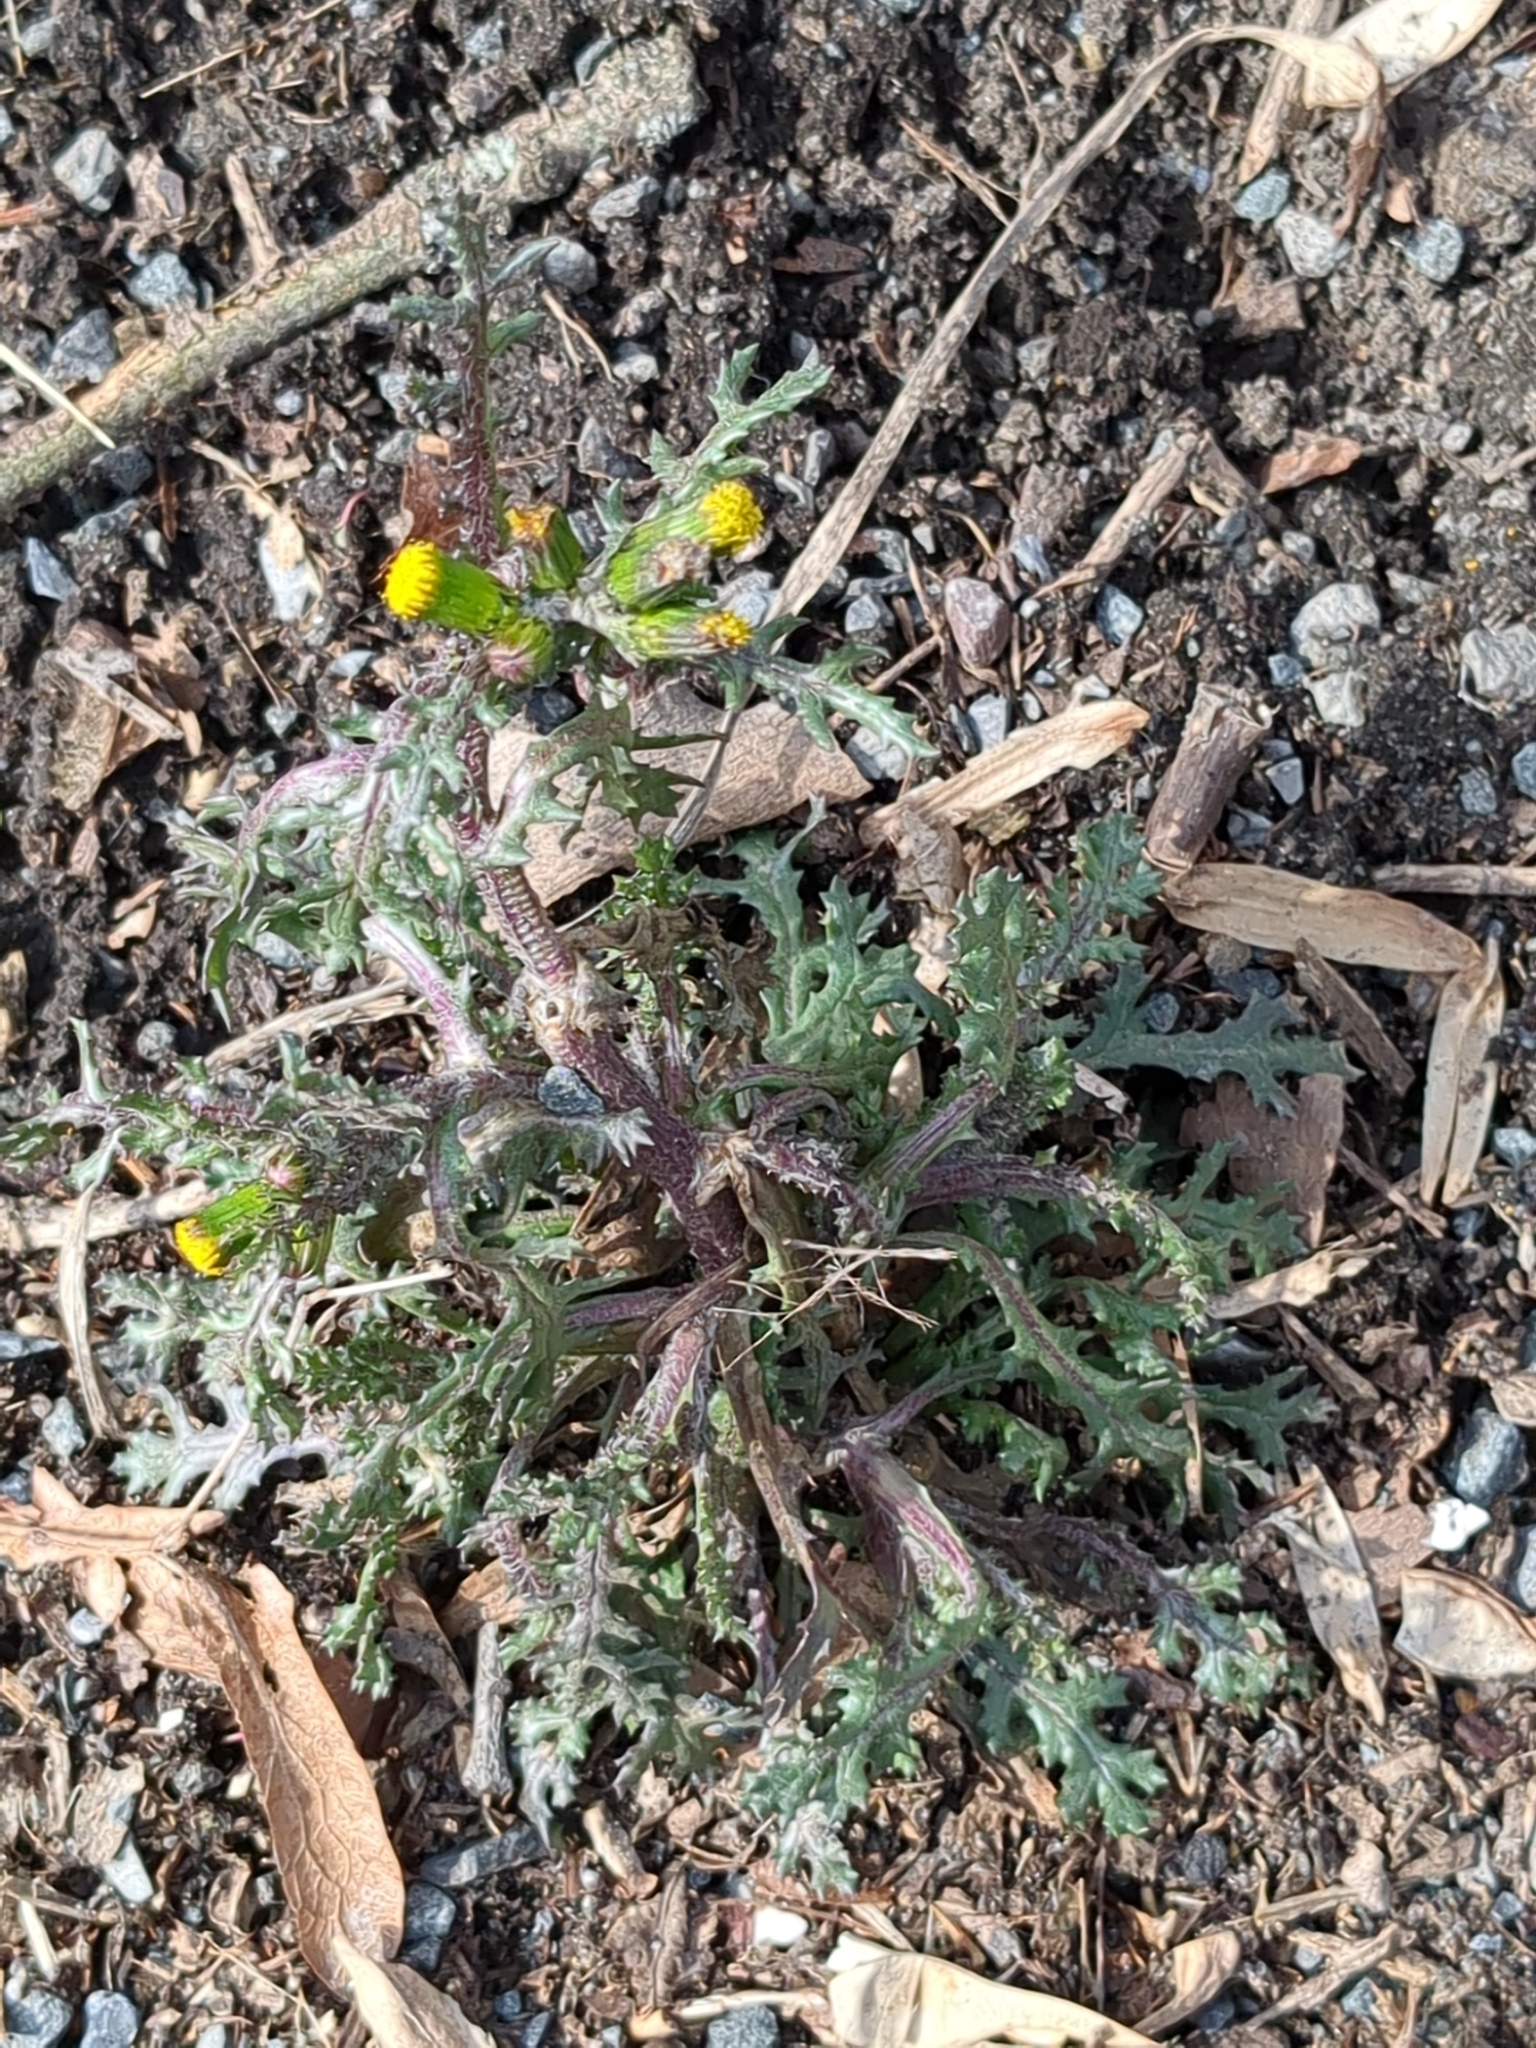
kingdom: Plantae
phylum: Tracheophyta
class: Magnoliopsida
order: Asterales
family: Asteraceae
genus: Senecio
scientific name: Senecio vulgaris
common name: Old-man-in-the-spring
